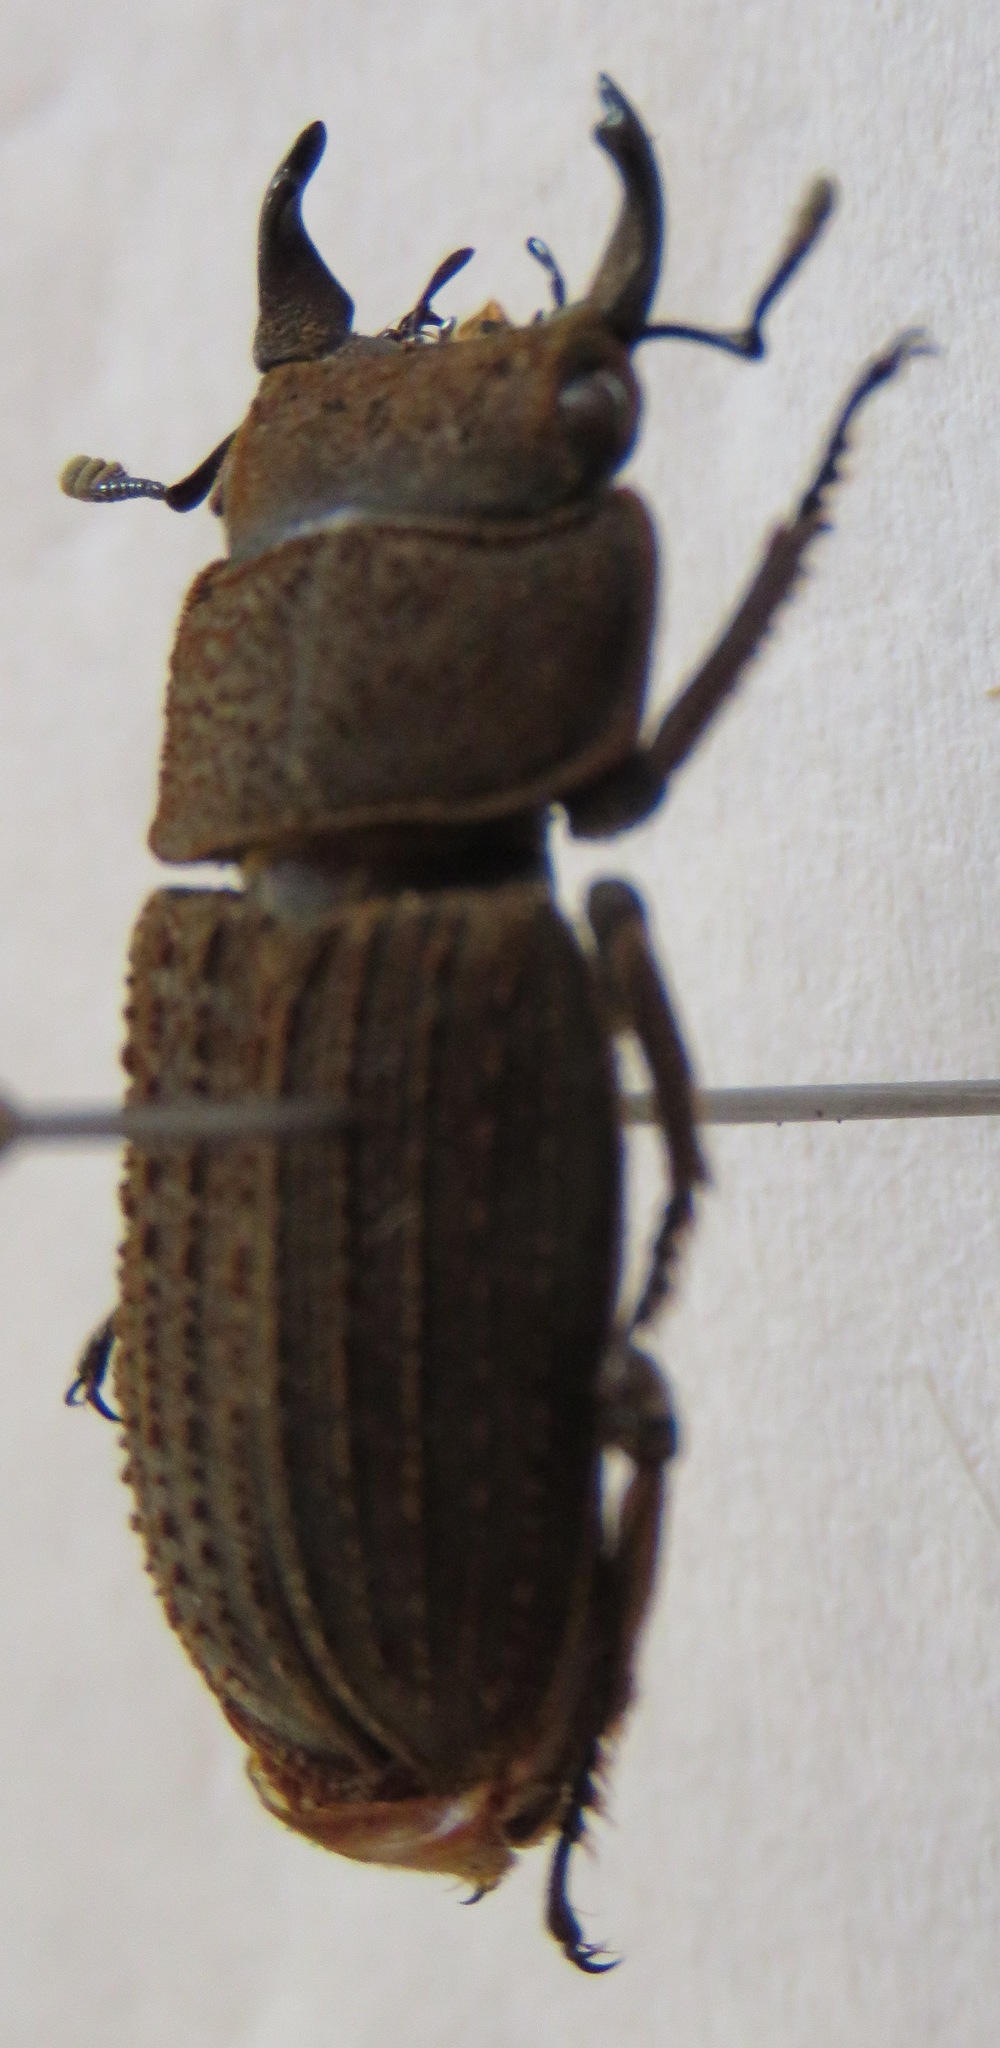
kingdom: Animalia
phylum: Arthropoda
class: Insecta
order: Coleoptera
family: Lucanidae
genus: Dorcus
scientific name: Dorcus
